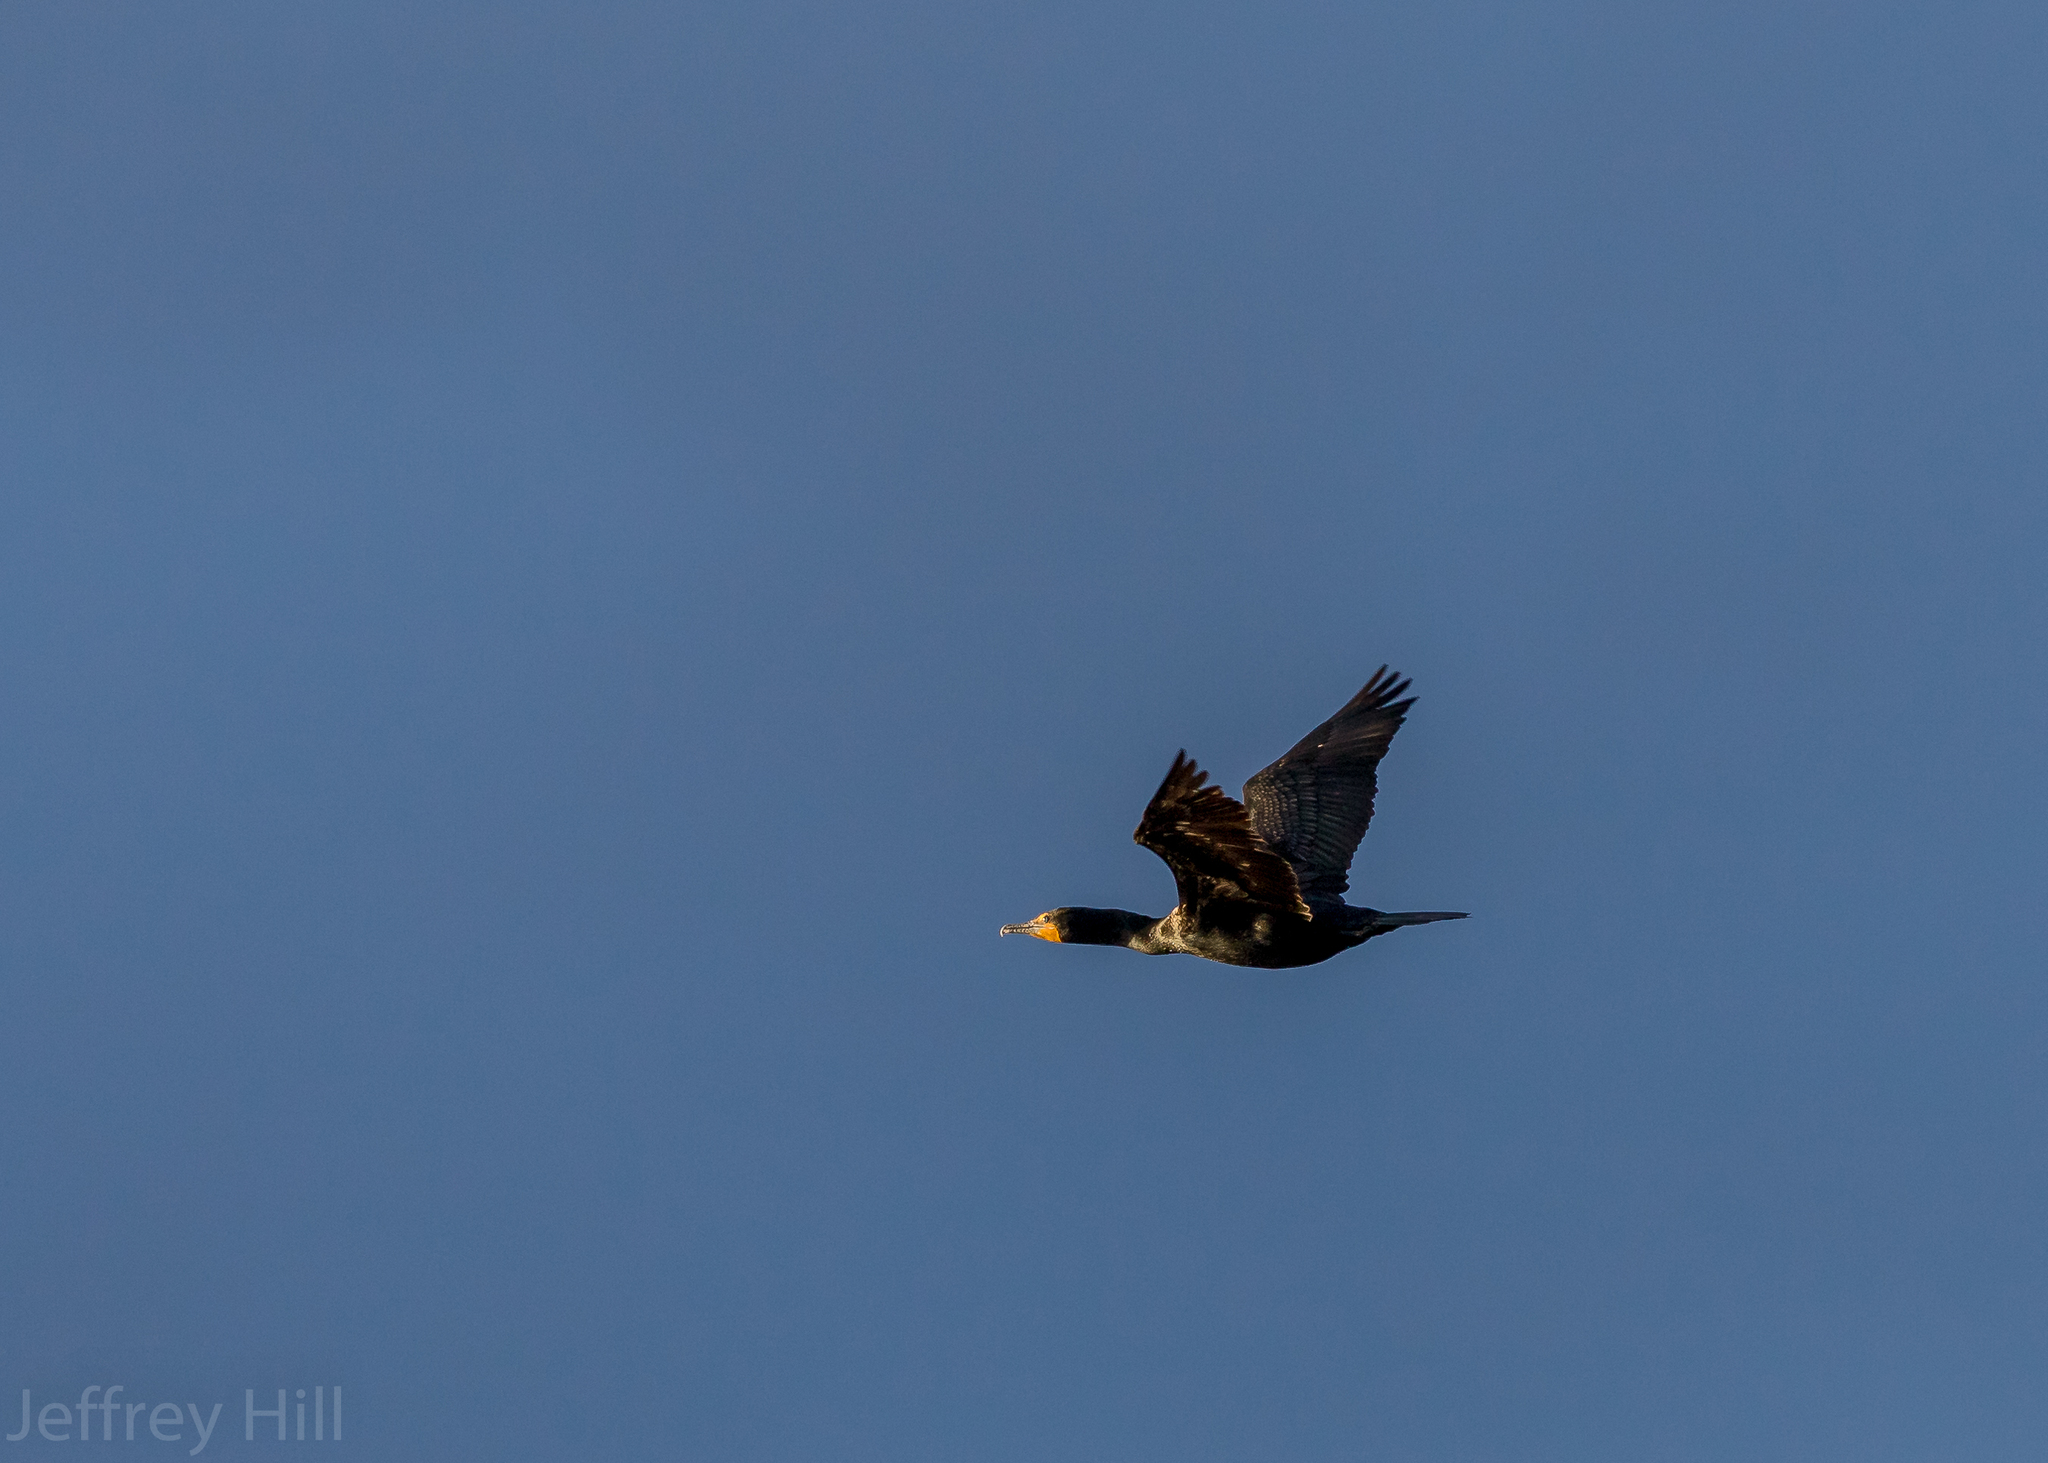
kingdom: Animalia
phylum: Chordata
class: Aves
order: Suliformes
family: Phalacrocoracidae
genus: Phalacrocorax
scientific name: Phalacrocorax auritus
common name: Double-crested cormorant
